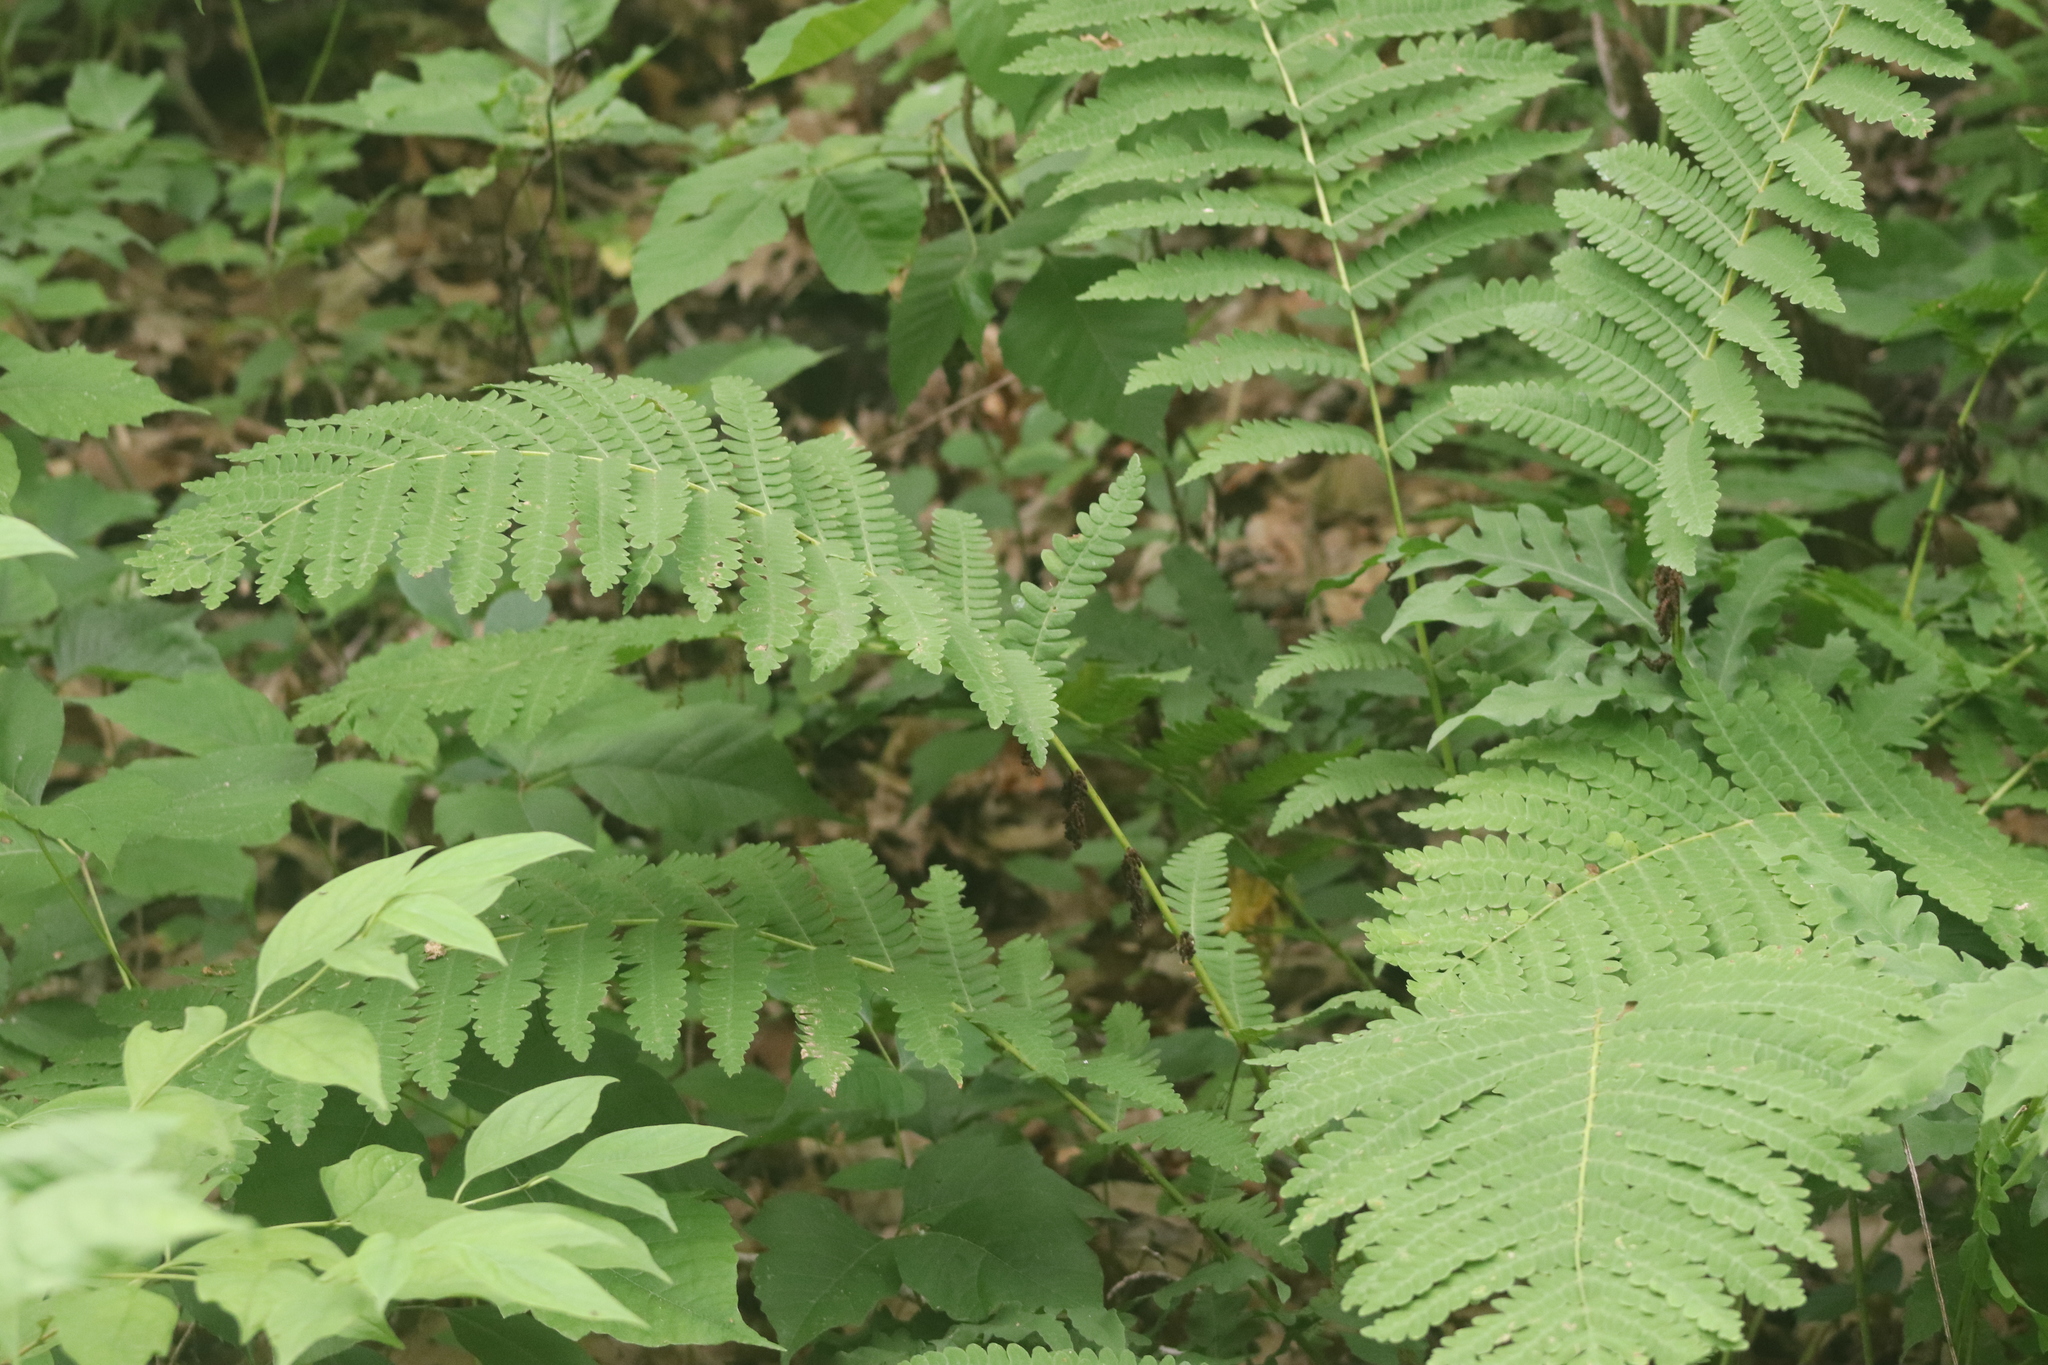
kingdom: Plantae
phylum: Tracheophyta
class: Polypodiopsida
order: Osmundales
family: Osmundaceae
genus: Claytosmunda
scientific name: Claytosmunda claytoniana
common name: Clayton's fern
